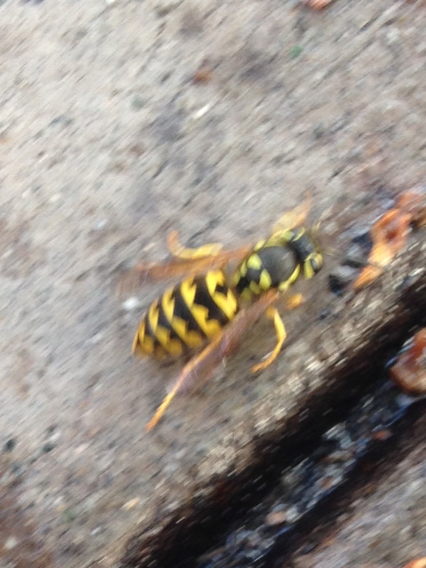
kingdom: Animalia
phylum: Arthropoda
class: Insecta
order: Hymenoptera
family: Vespidae
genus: Vespula
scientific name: Vespula pensylvanica
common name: Western yellowjacket
